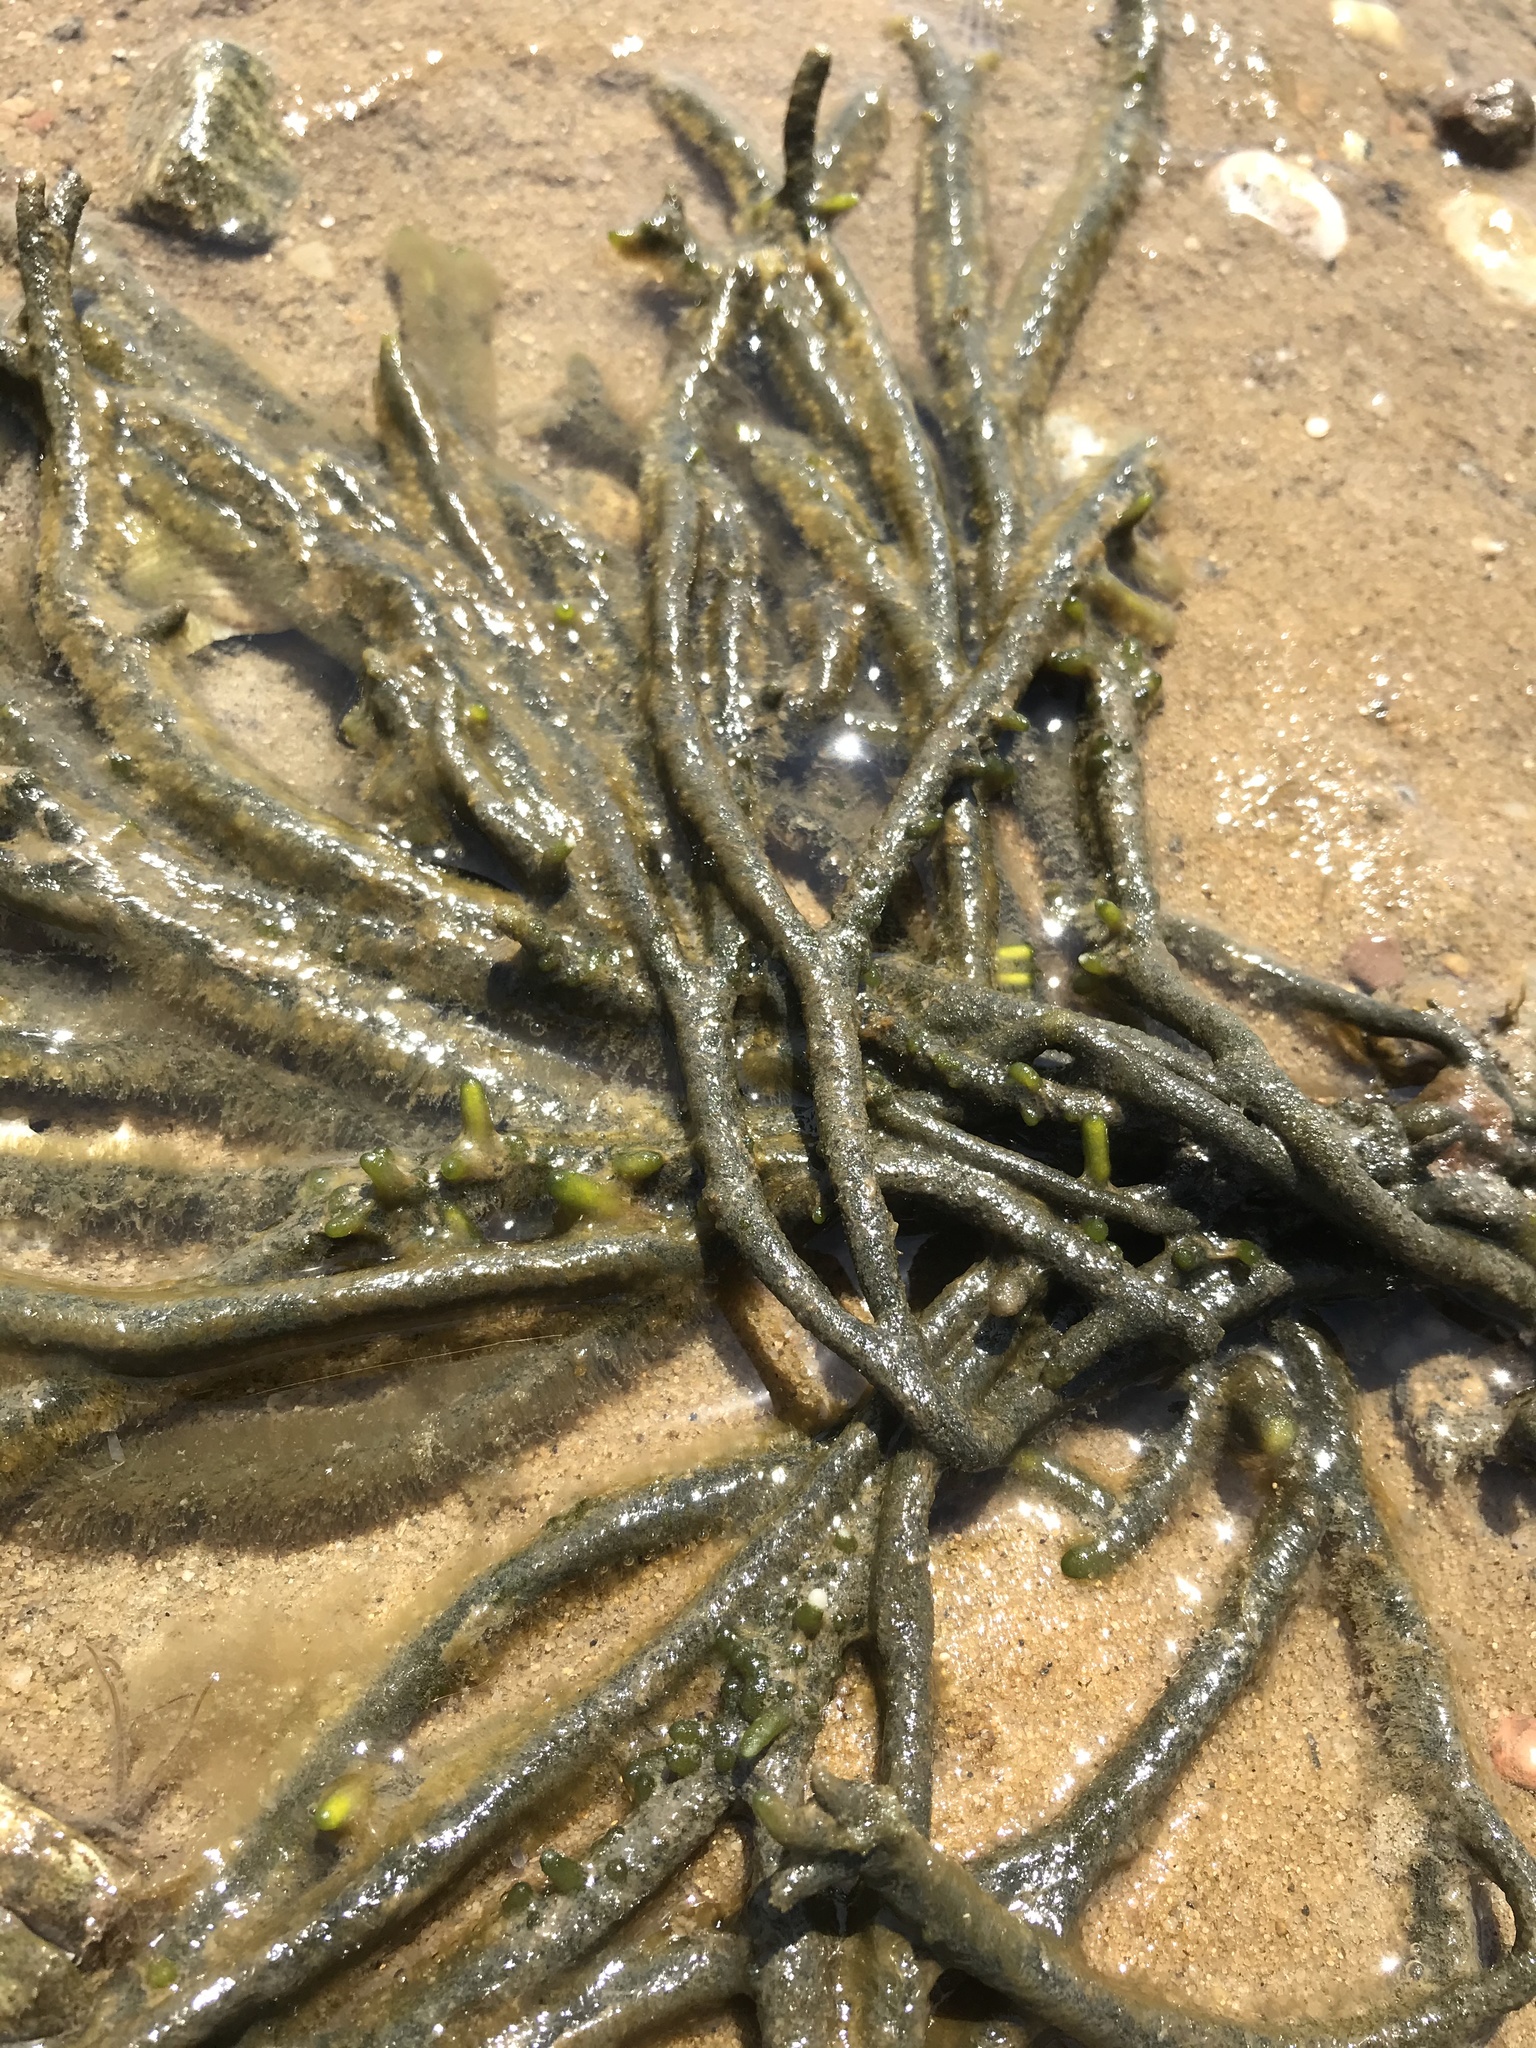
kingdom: Plantae
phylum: Chlorophyta
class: Ulvophyceae
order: Bryopsidales
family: Codiaceae
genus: Codium
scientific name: Codium fragile
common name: Dead man's fingers
